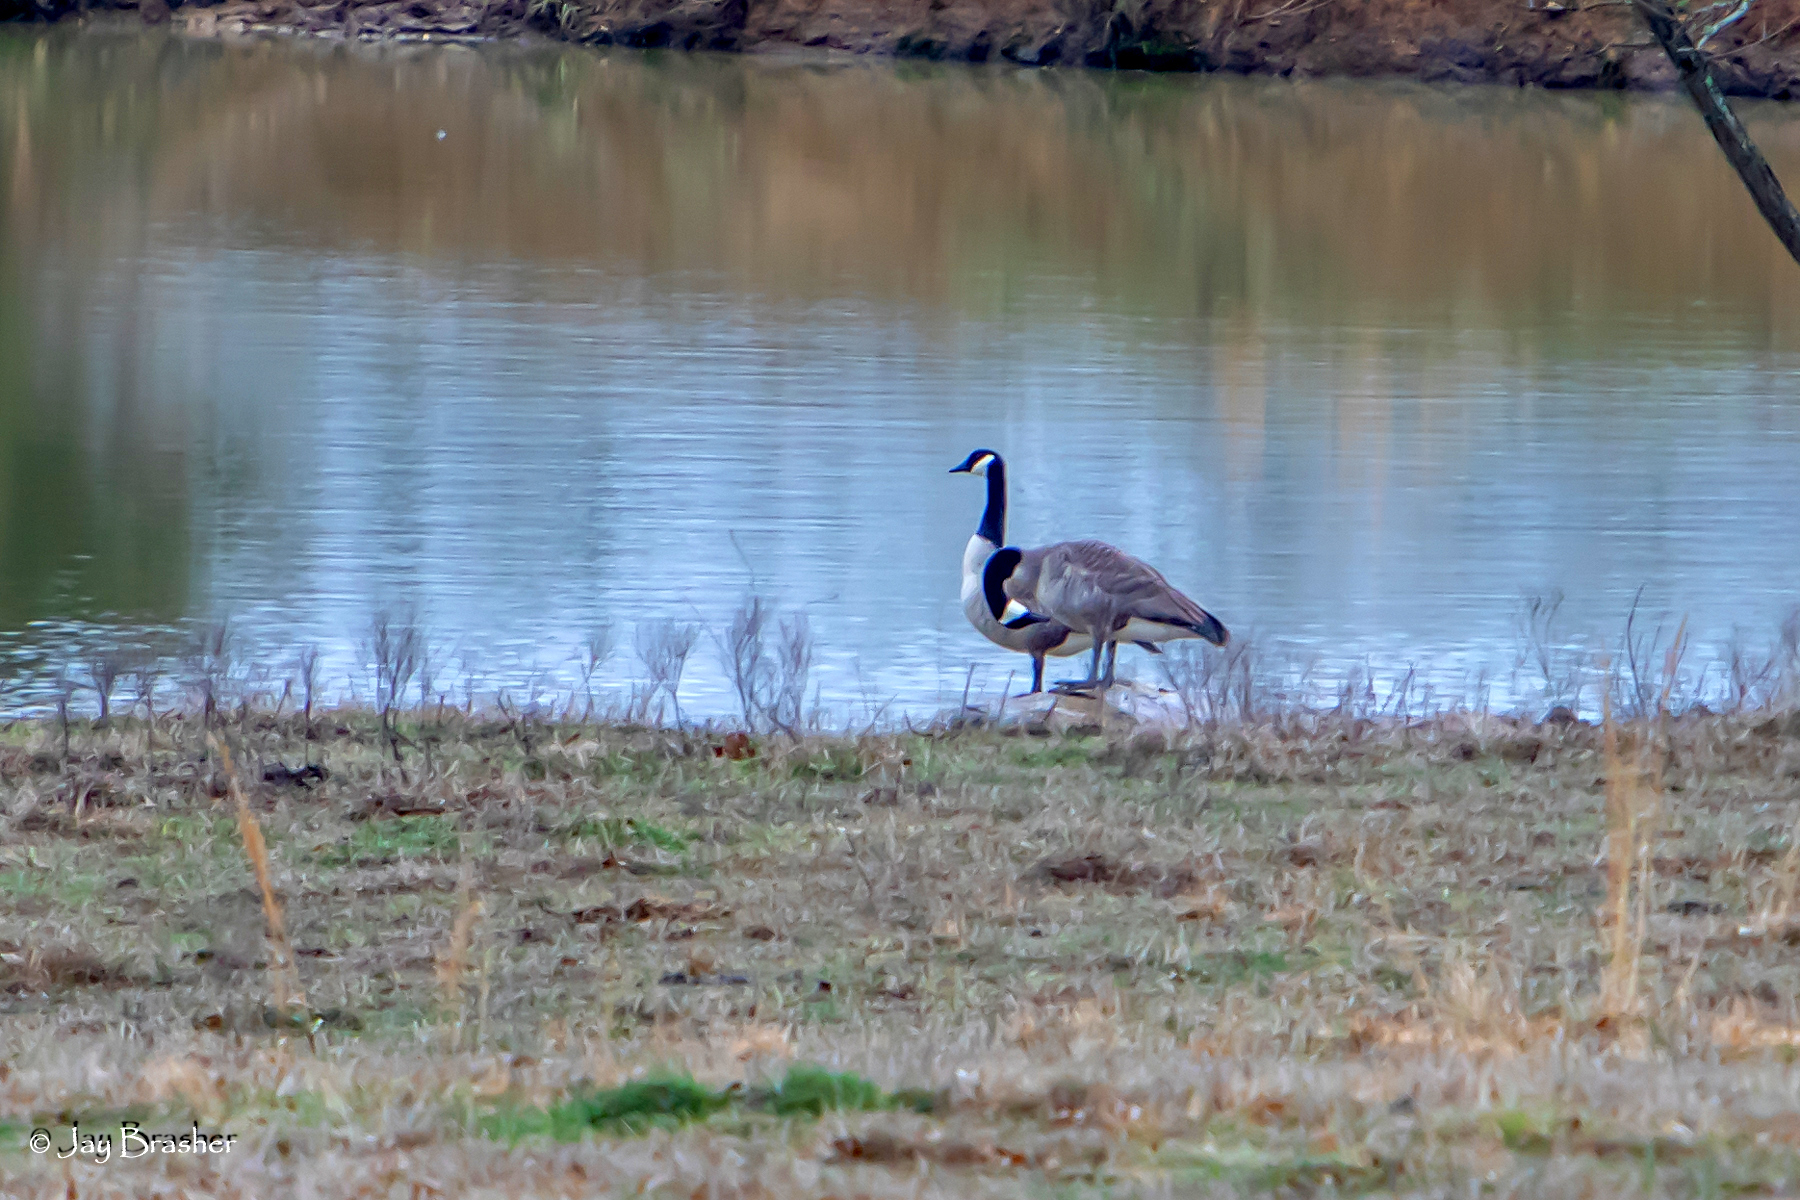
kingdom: Animalia
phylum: Chordata
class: Aves
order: Anseriformes
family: Anatidae
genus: Branta
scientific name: Branta canadensis
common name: Canada goose
